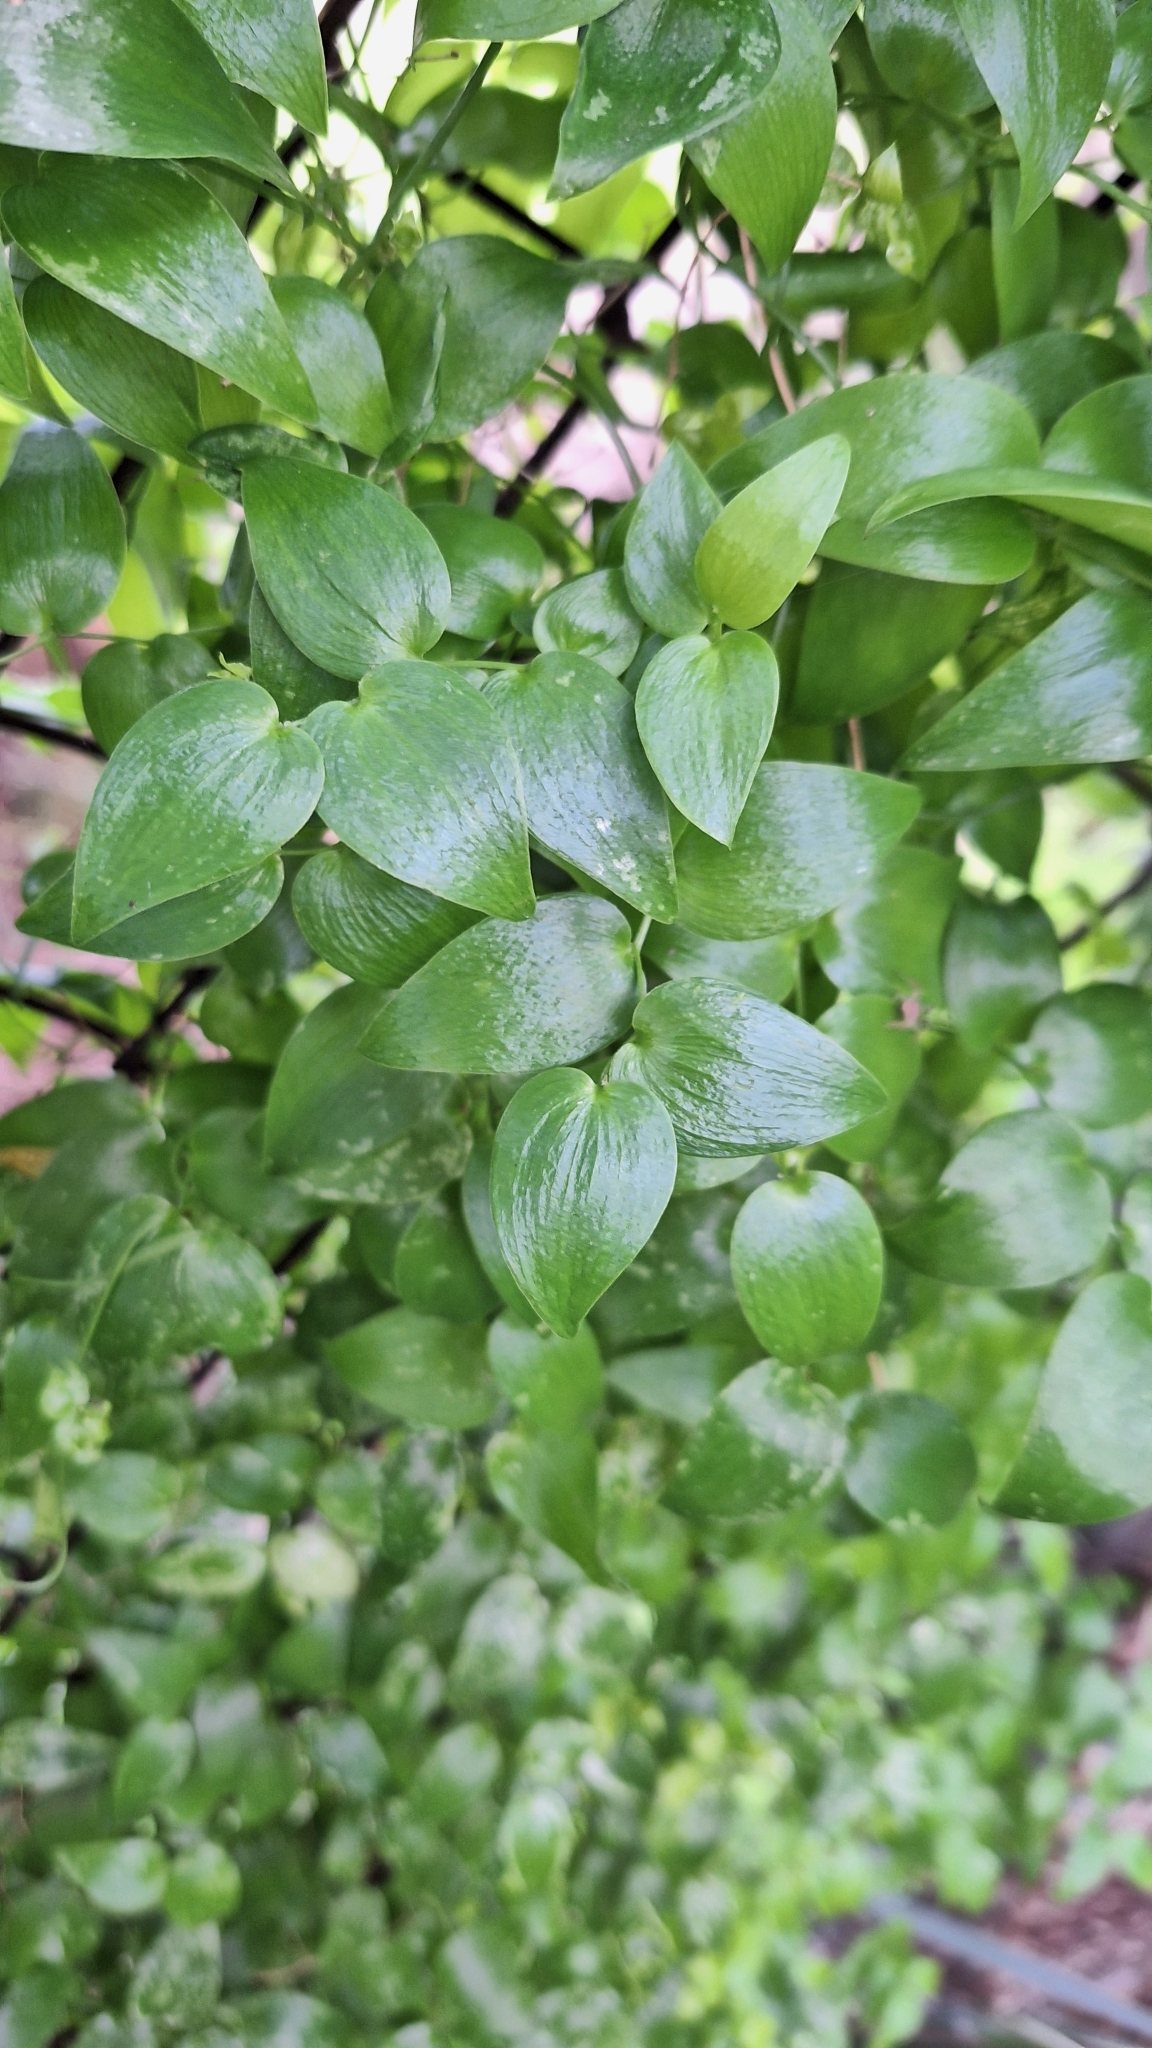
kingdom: Plantae
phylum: Tracheophyta
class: Liliopsida
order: Asparagales
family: Asparagaceae
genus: Asparagus
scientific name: Asparagus asparagoides
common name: African asparagus fern
